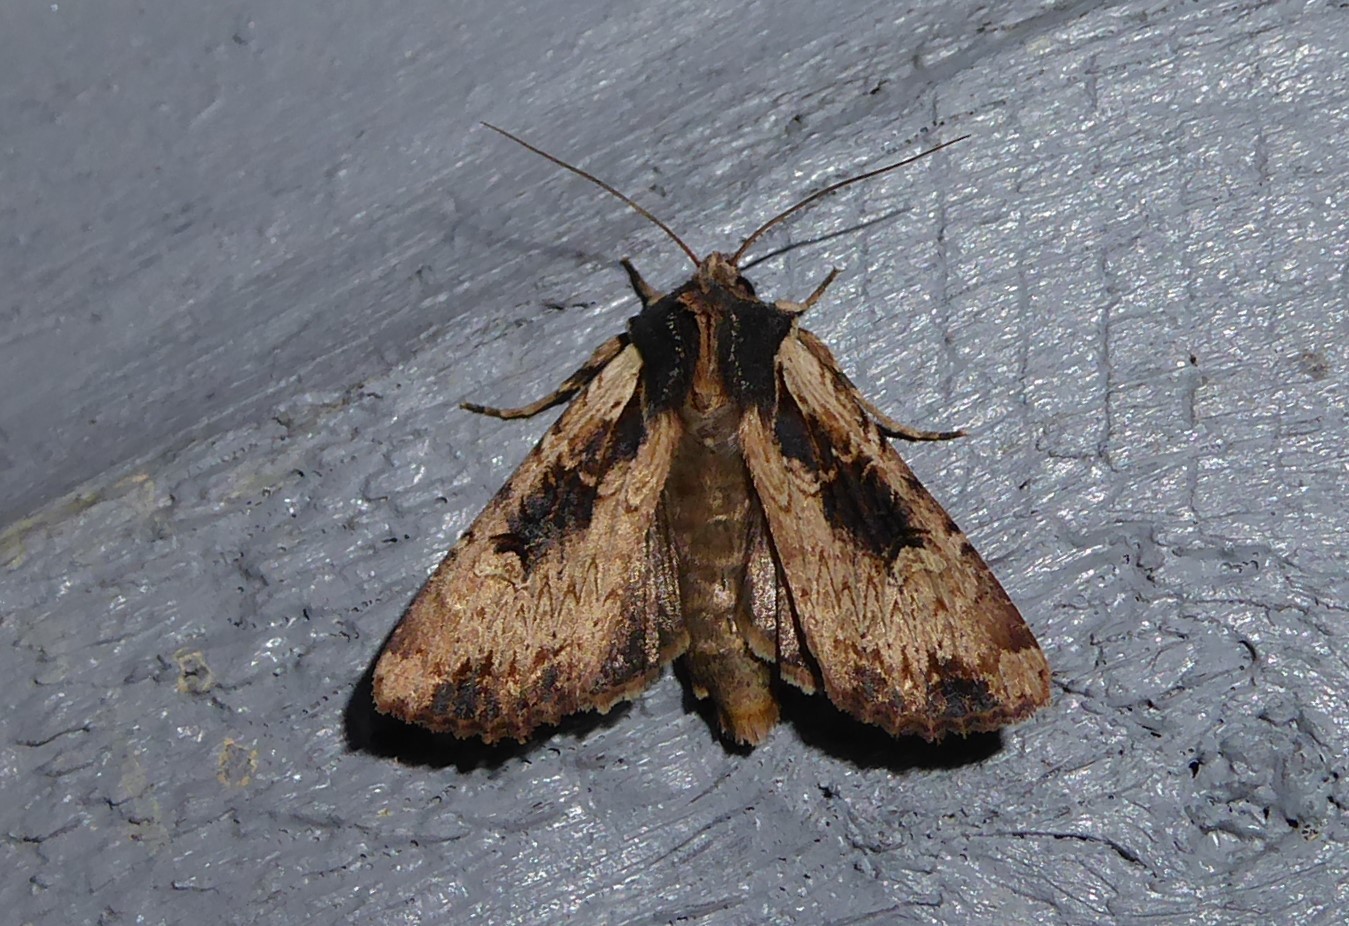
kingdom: Animalia
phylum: Arthropoda
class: Insecta
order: Lepidoptera
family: Noctuidae
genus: Ichneutica
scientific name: Ichneutica omoplaca
